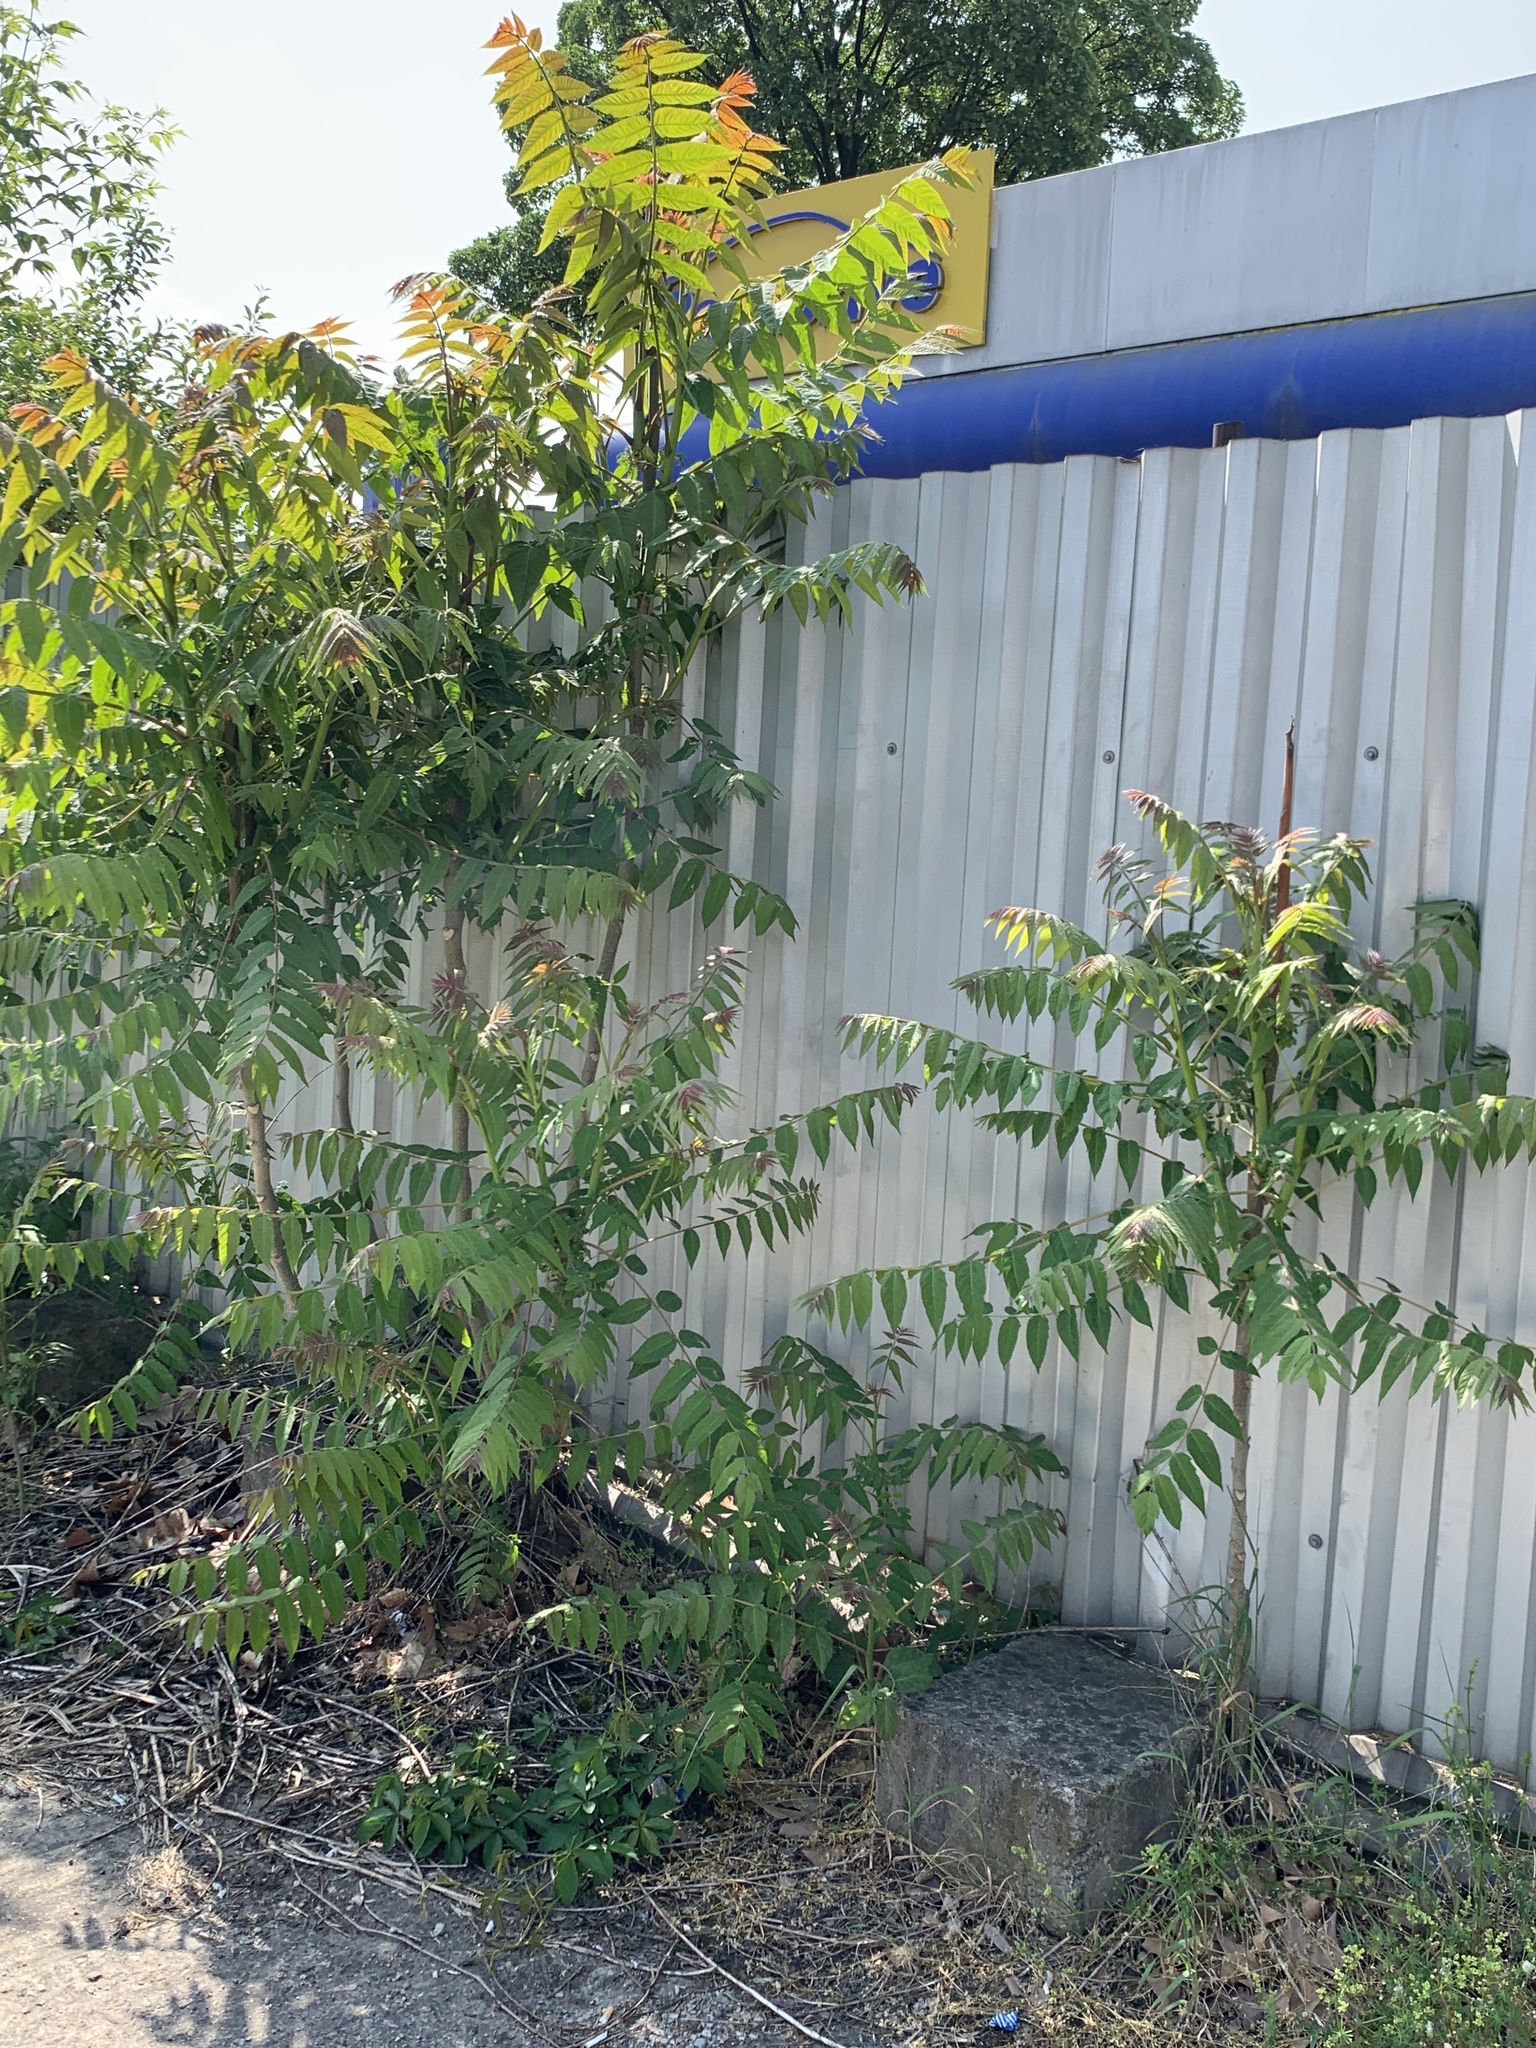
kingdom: Plantae
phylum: Tracheophyta
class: Magnoliopsida
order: Sapindales
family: Simaroubaceae
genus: Ailanthus
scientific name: Ailanthus altissima
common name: Tree-of-heaven
